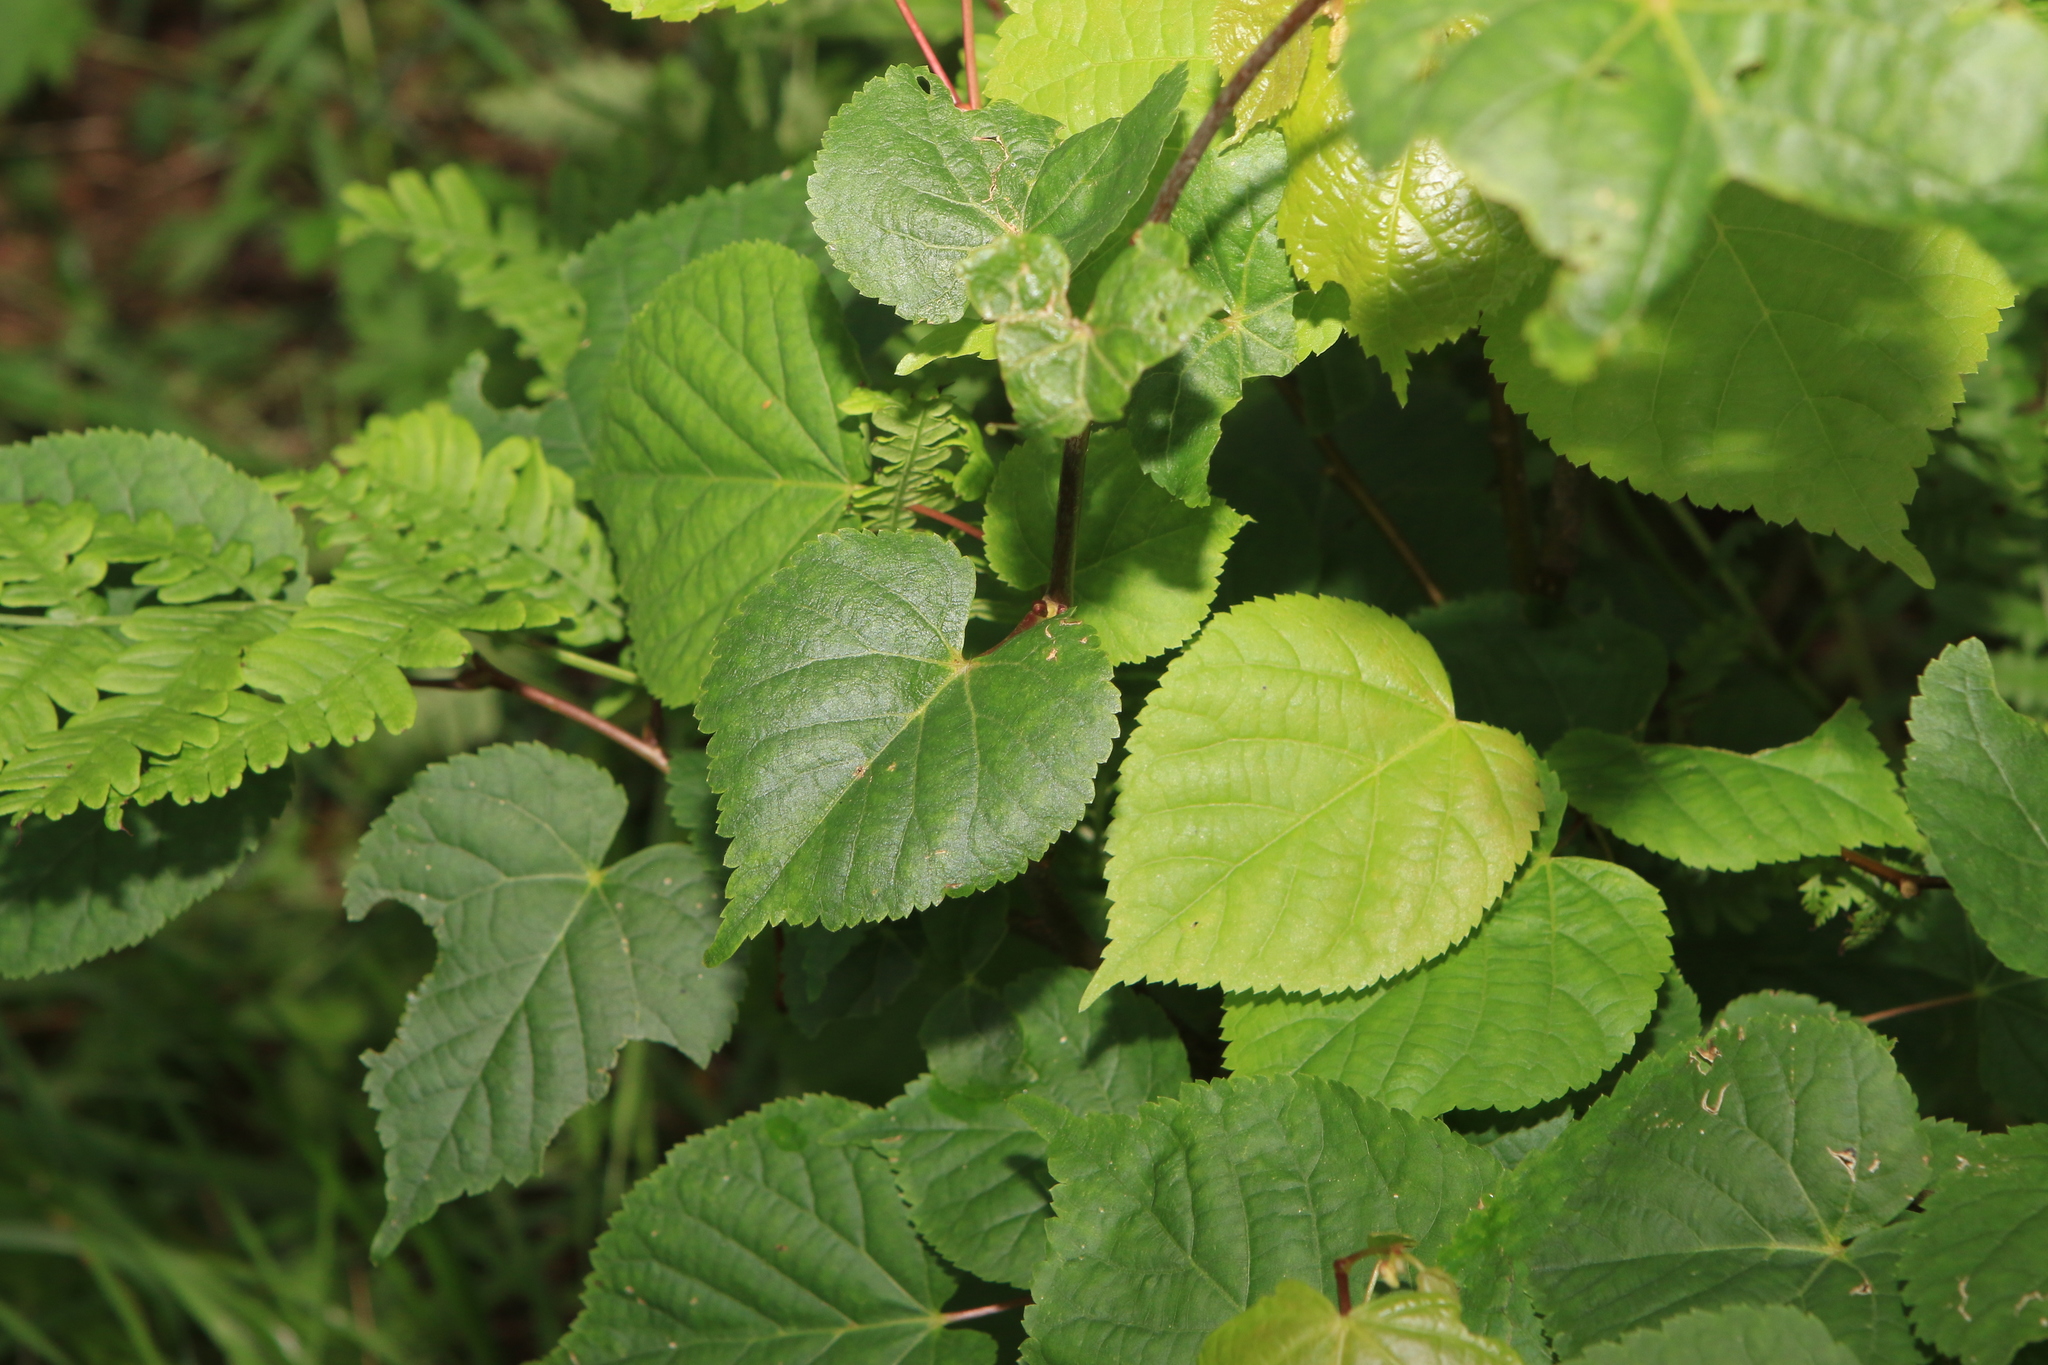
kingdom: Plantae
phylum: Tracheophyta
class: Magnoliopsida
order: Malvales
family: Malvaceae
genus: Tilia
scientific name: Tilia cordata
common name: Small-leaved lime
